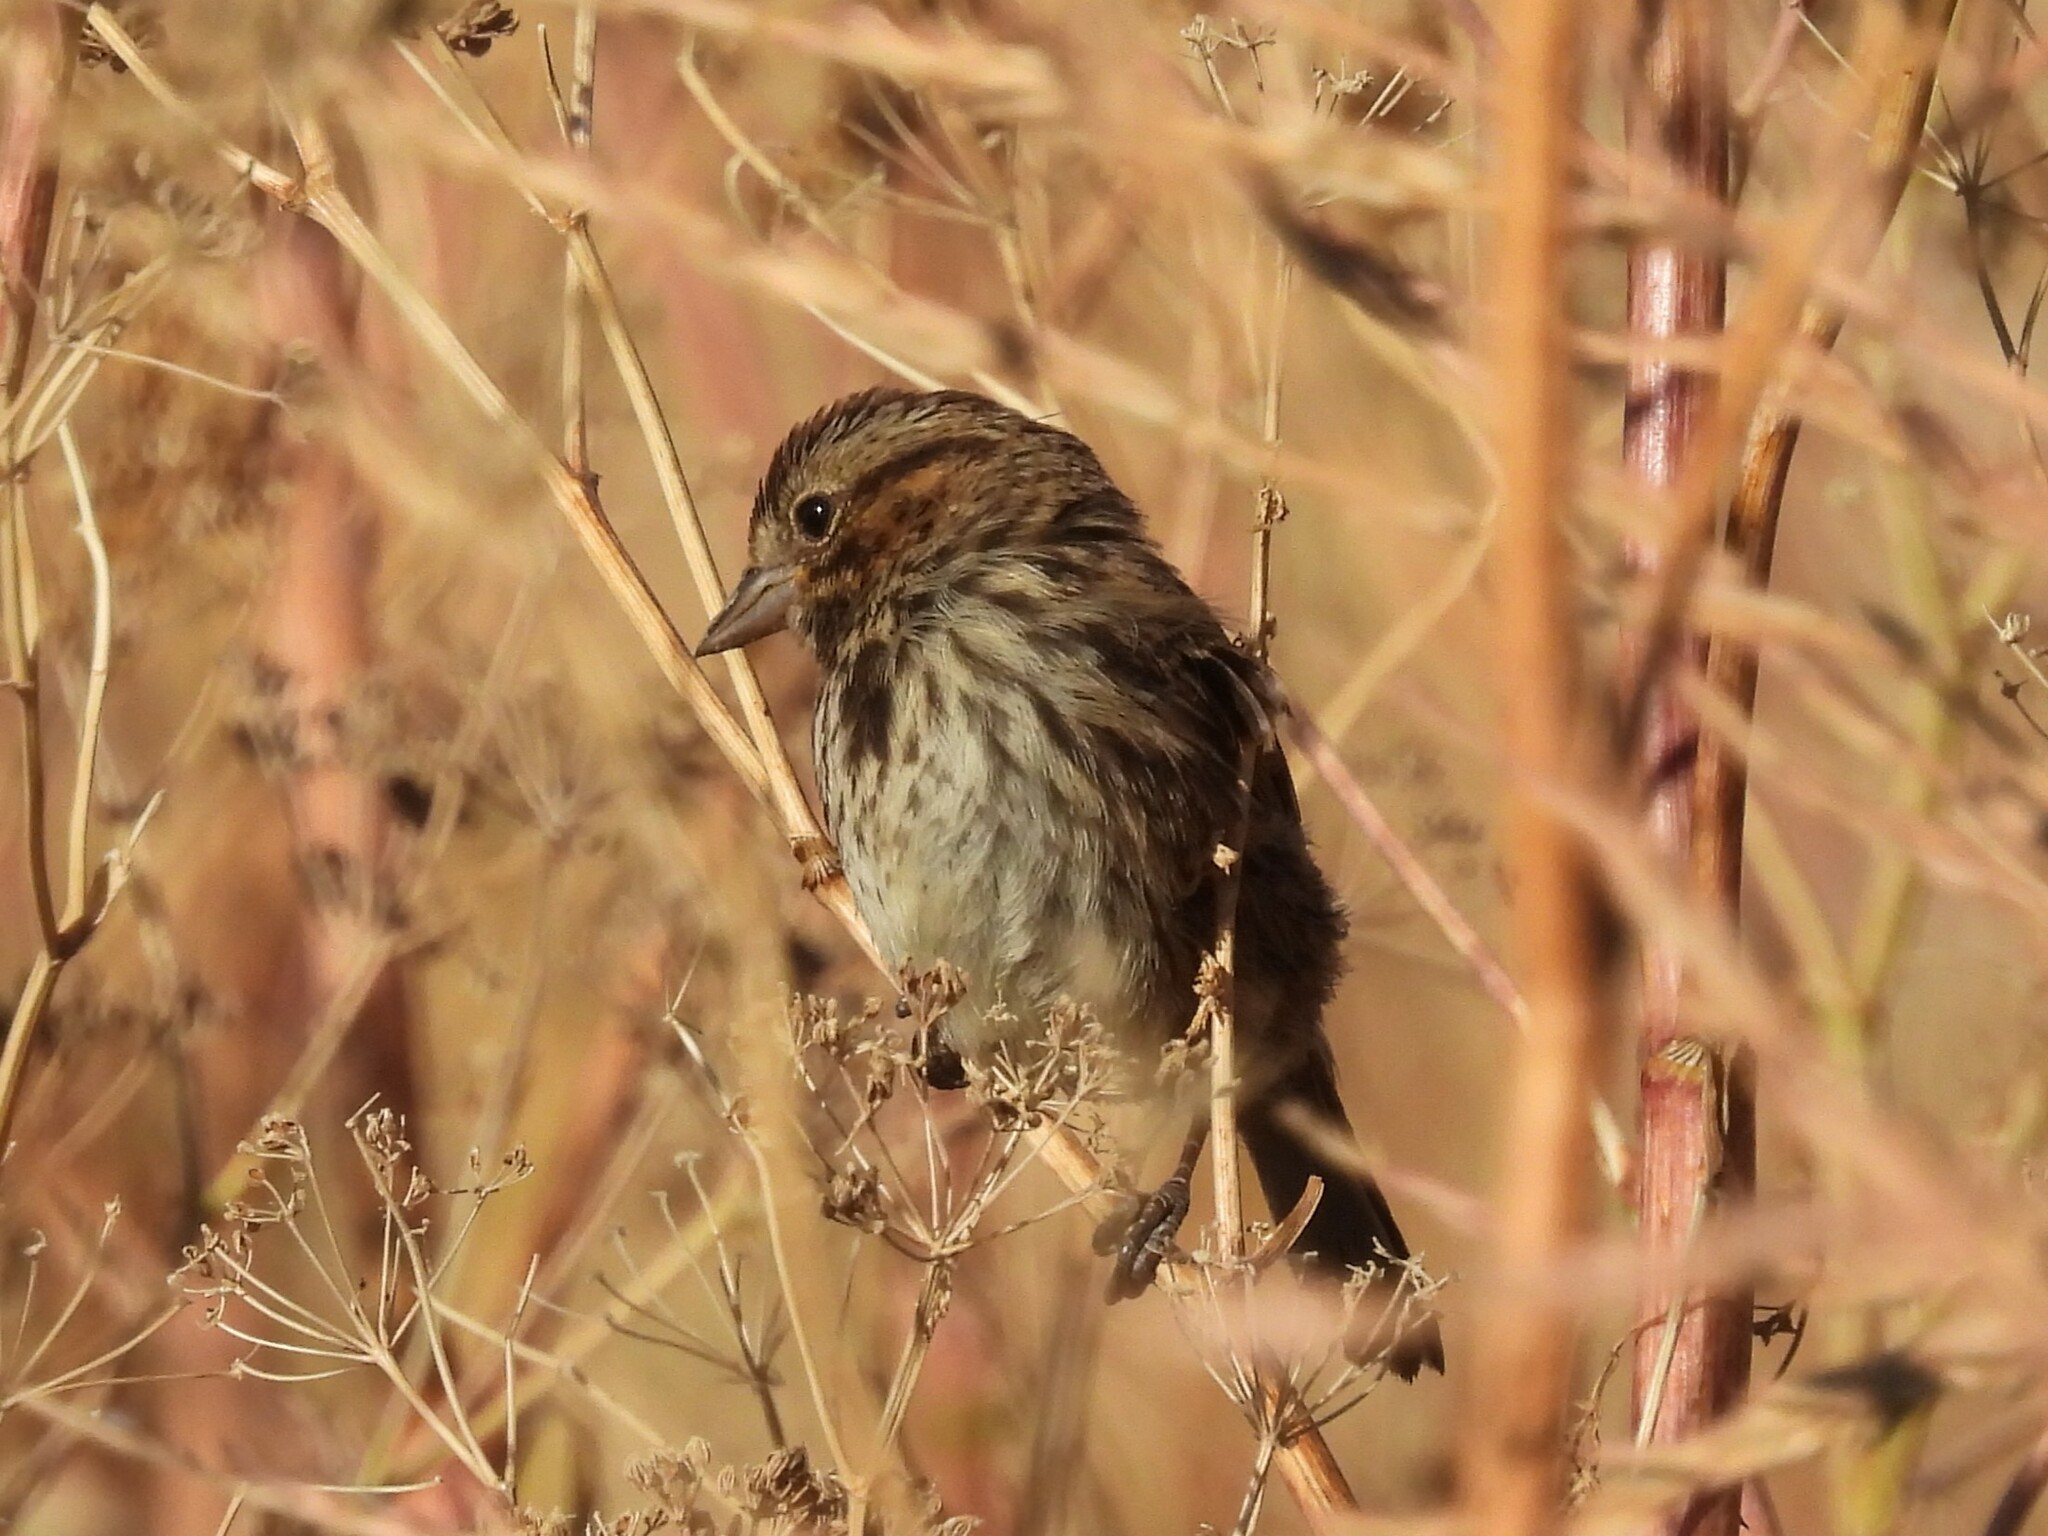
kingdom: Animalia
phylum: Chordata
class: Aves
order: Passeriformes
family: Passerellidae
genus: Melospiza
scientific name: Melospiza melodia
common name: Song sparrow
